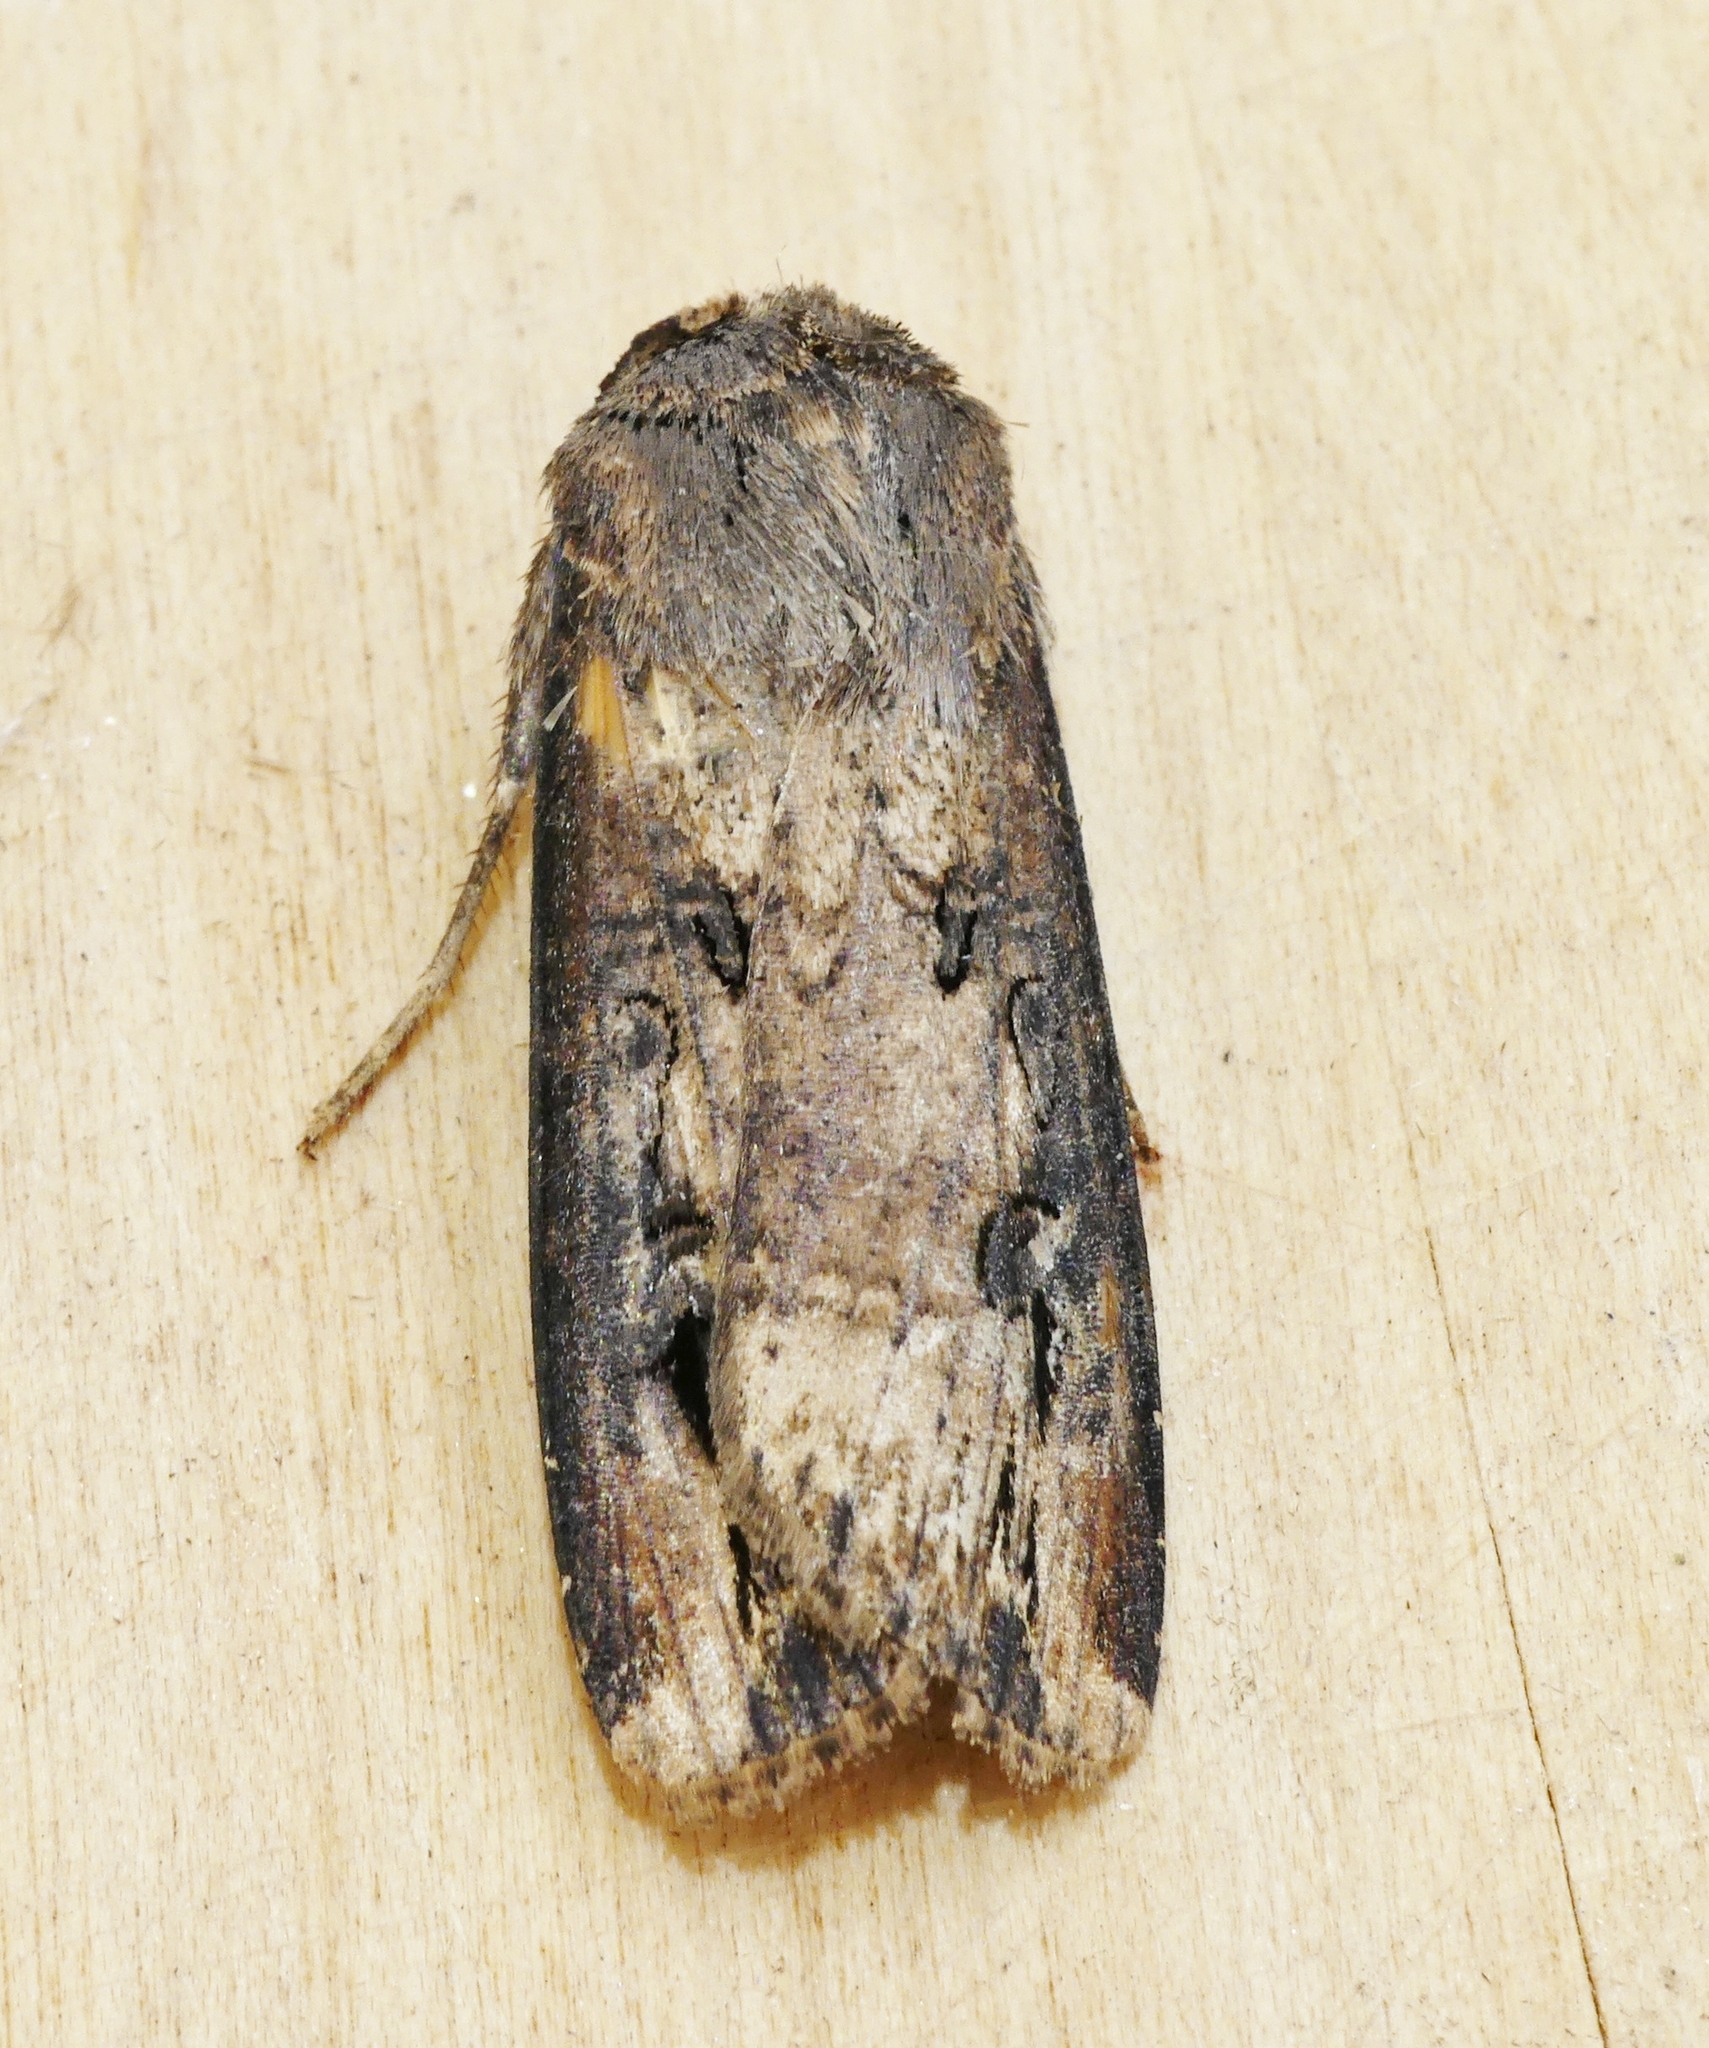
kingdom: Animalia
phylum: Arthropoda
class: Insecta
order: Lepidoptera
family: Noctuidae
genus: Agrotis
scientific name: Agrotis ipsilon
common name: Dark sword-grass
